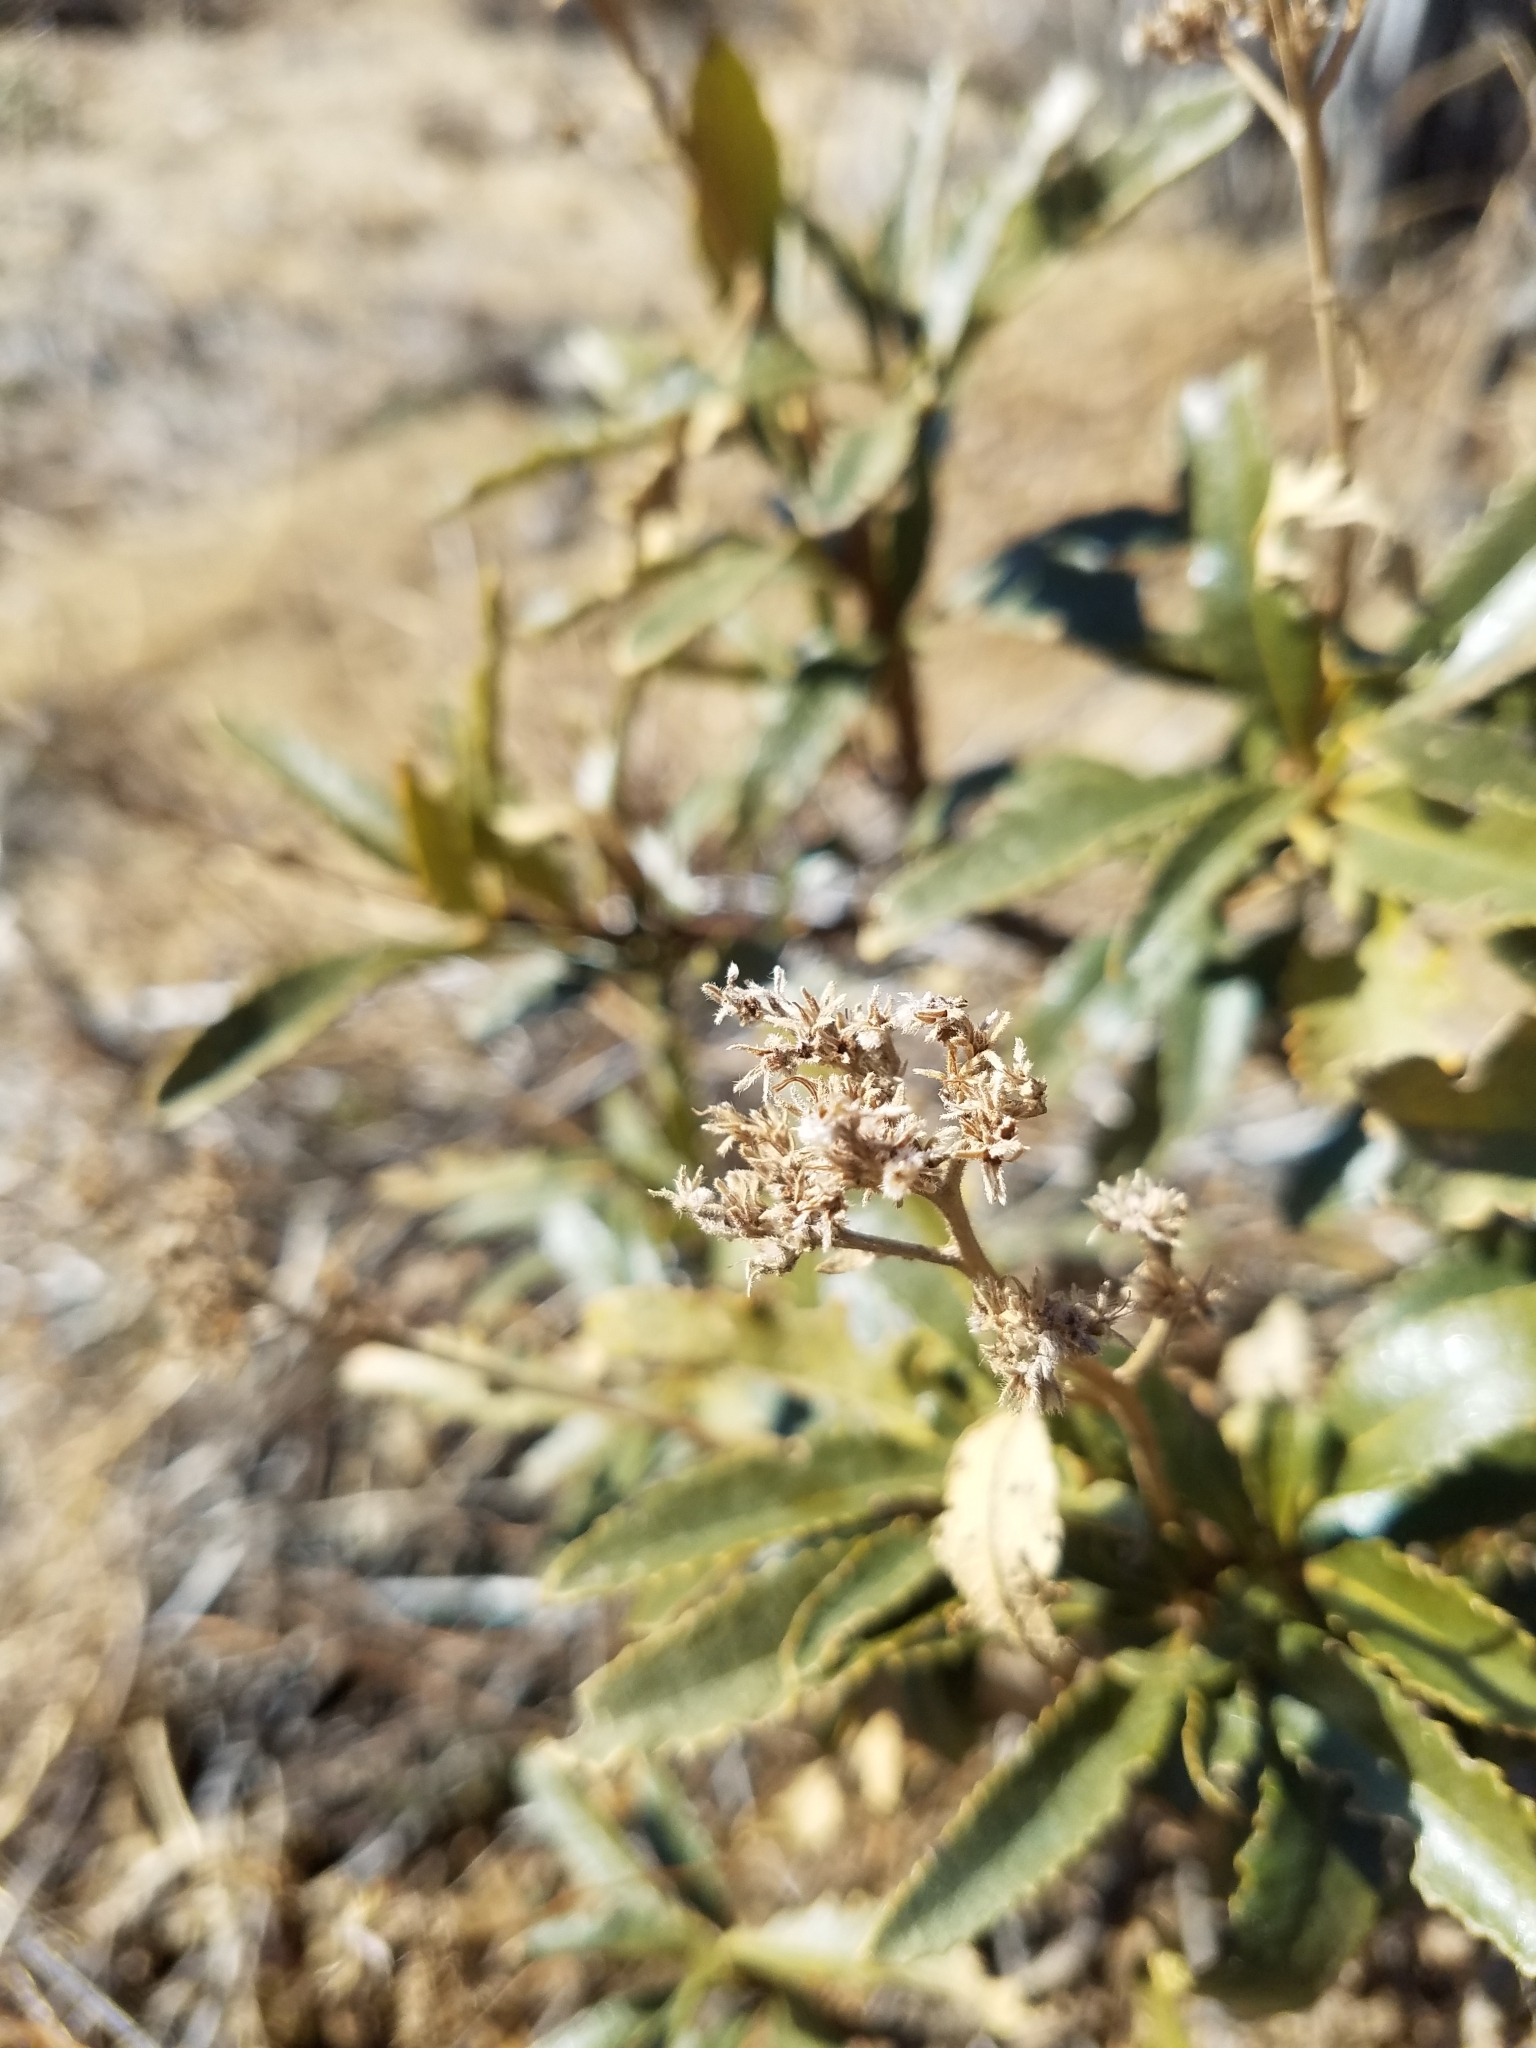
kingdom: Plantae
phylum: Tracheophyta
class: Magnoliopsida
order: Boraginales
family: Namaceae
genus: Eriodictyon
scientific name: Eriodictyon trichocalyx
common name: Hairy yerba-santa
